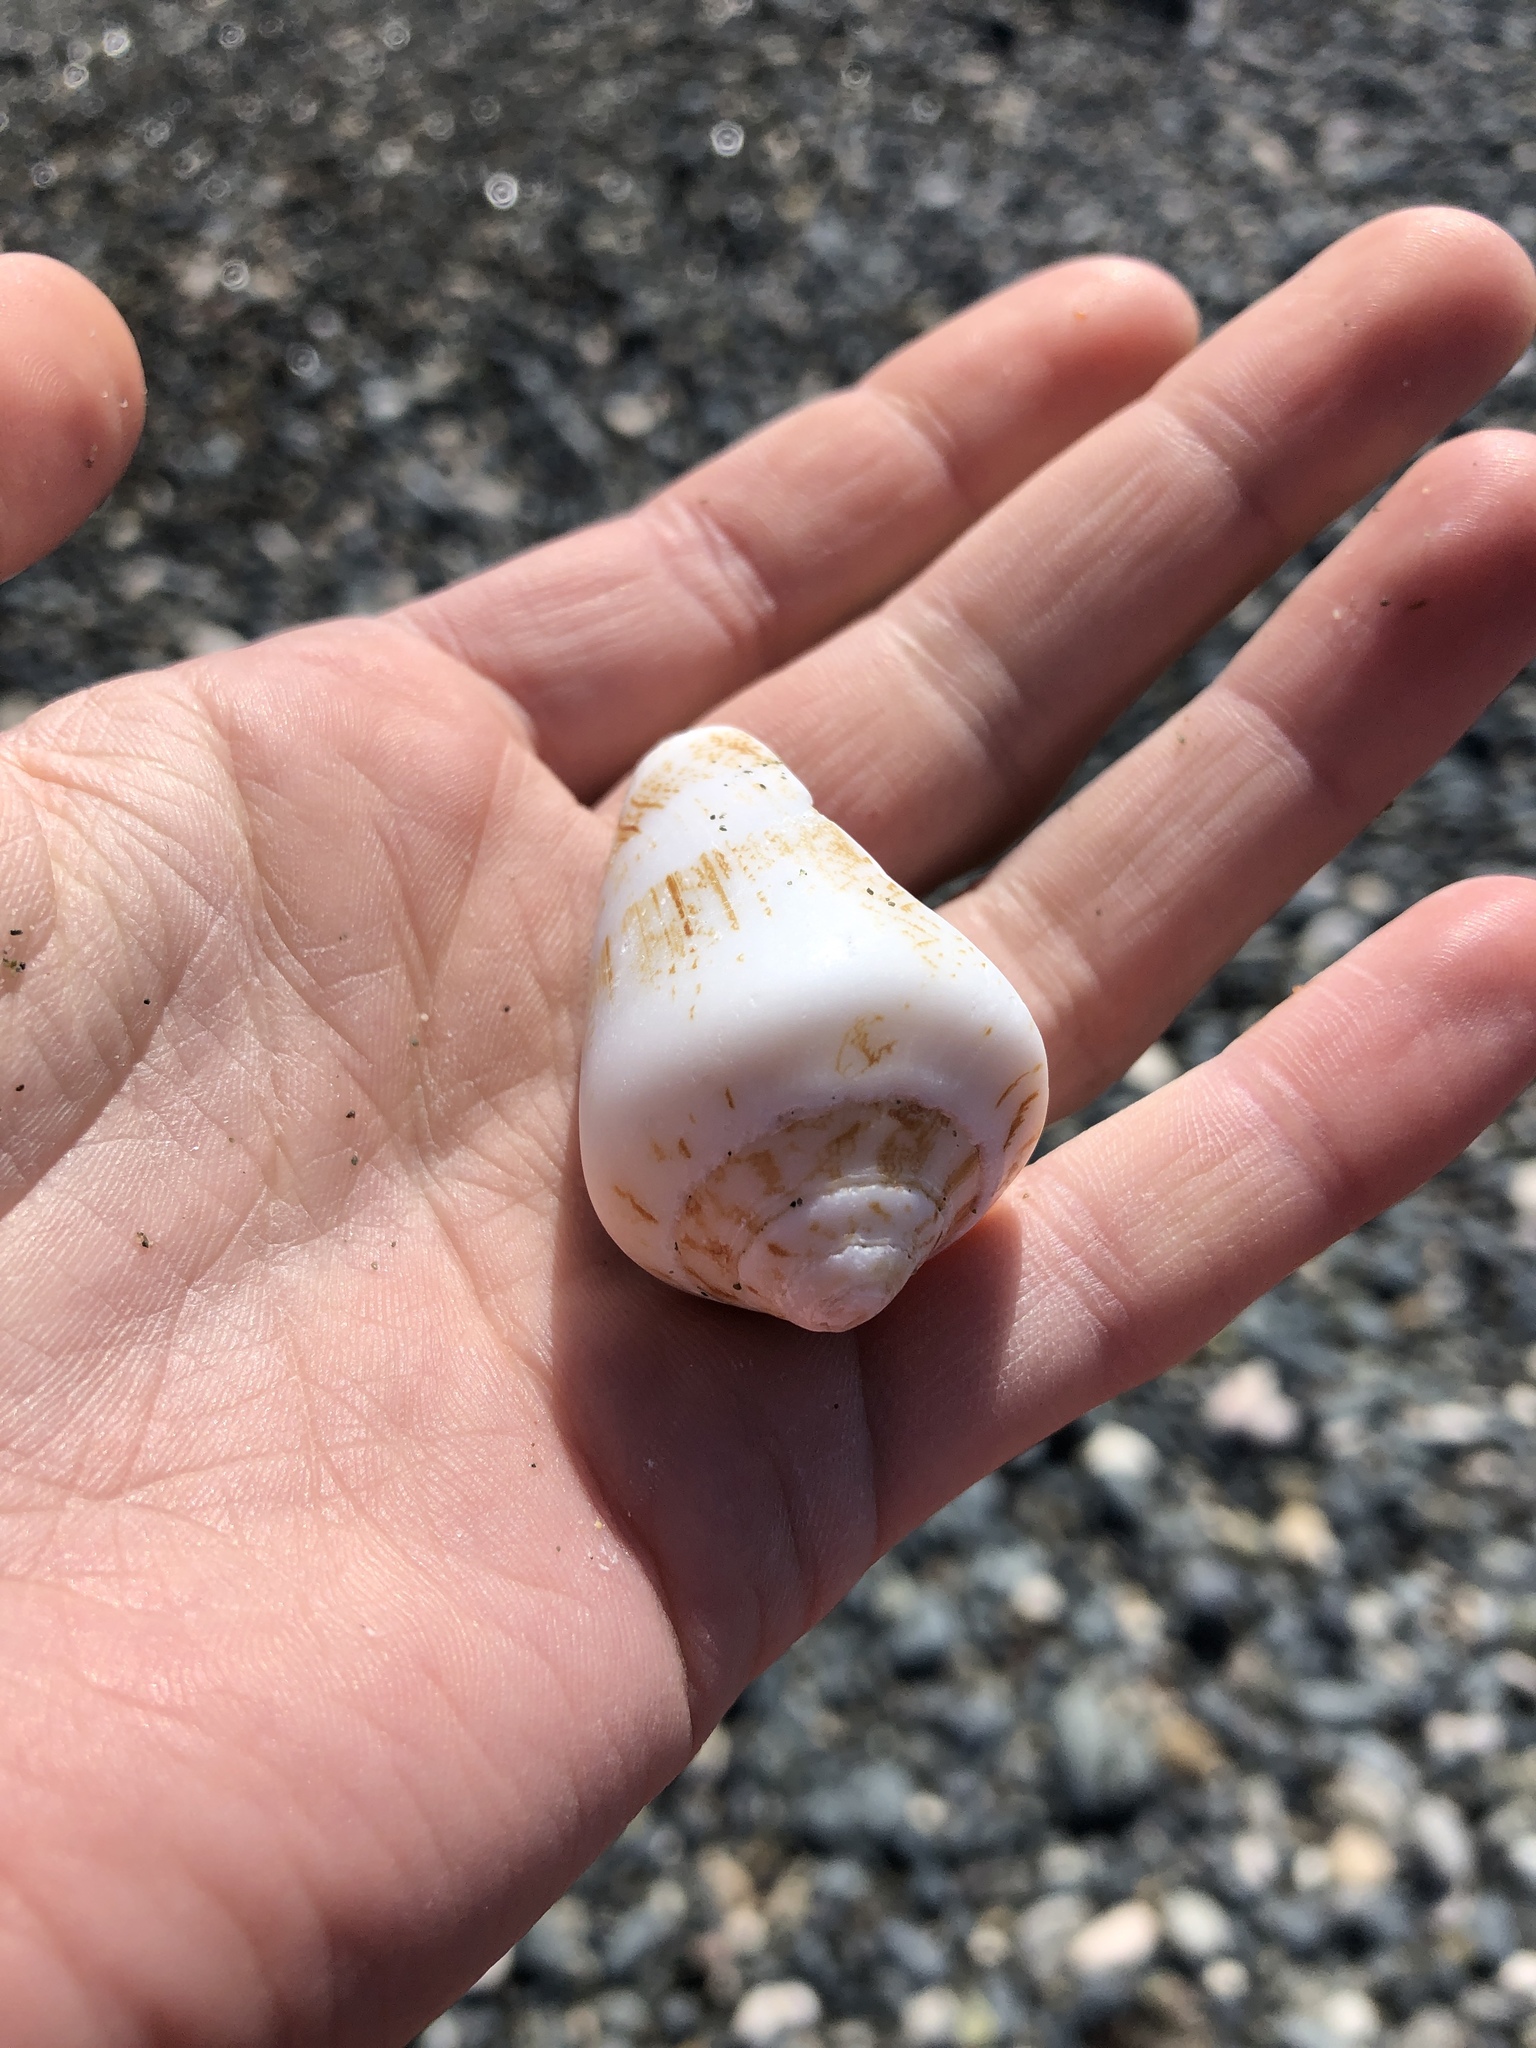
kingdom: Animalia
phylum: Mollusca
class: Gastropoda
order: Littorinimorpha
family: Strombidae
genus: Conomurex
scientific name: Conomurex persicus
